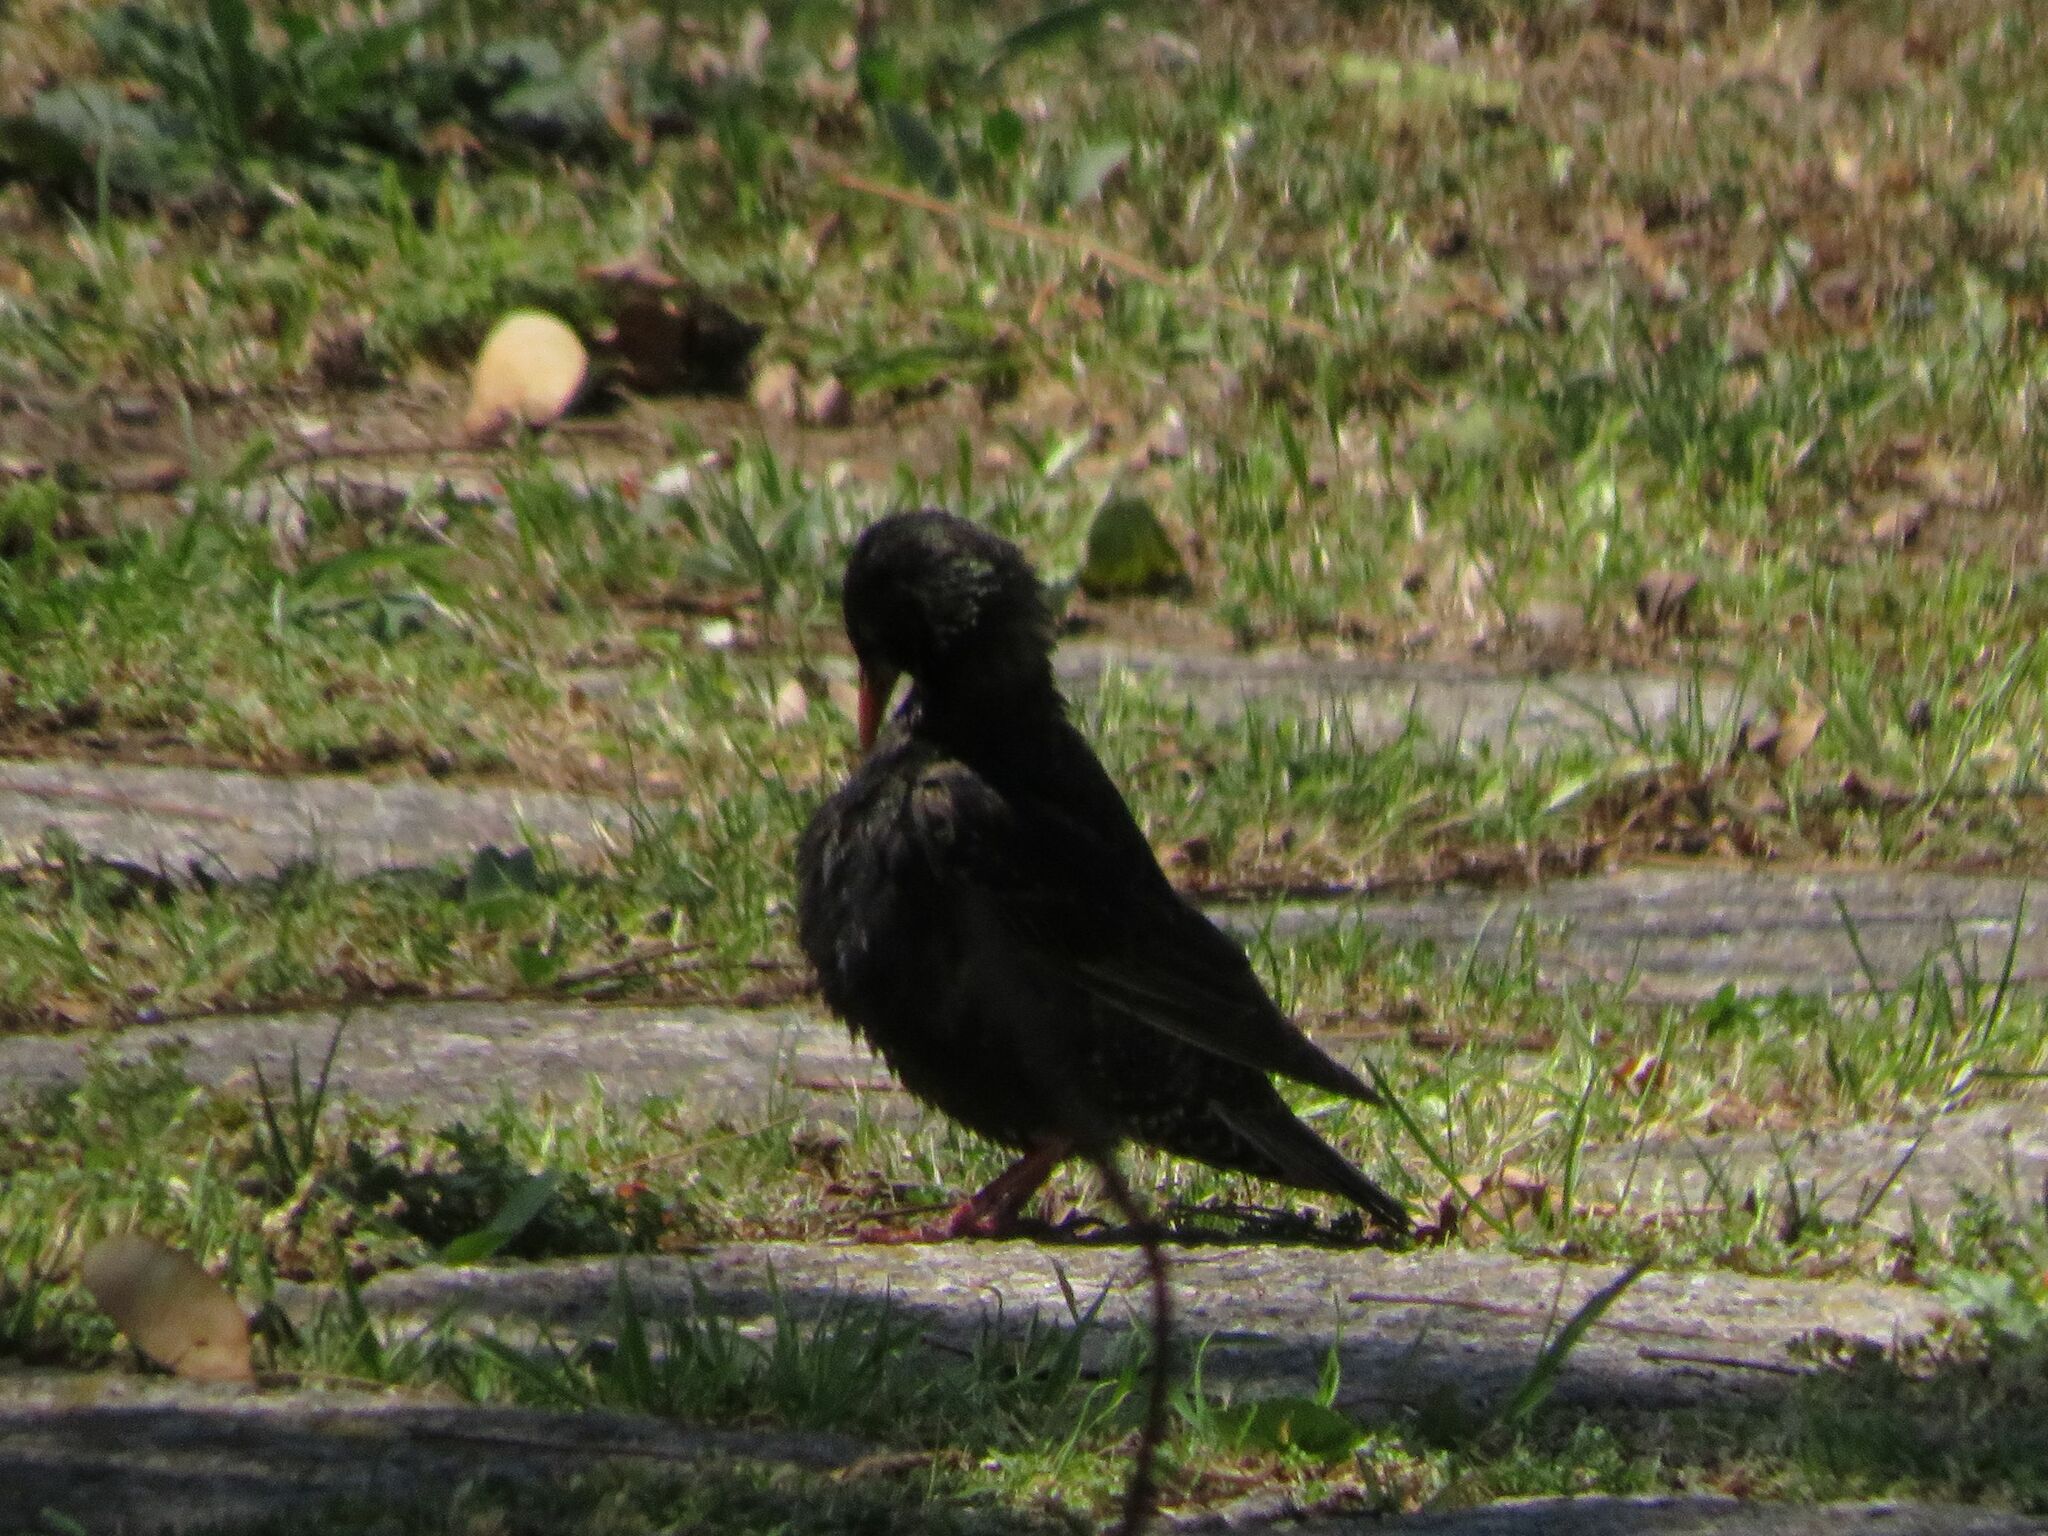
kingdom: Animalia
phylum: Chordata
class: Aves
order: Passeriformes
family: Sturnidae
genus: Sturnus
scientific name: Sturnus vulgaris
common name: Common starling
